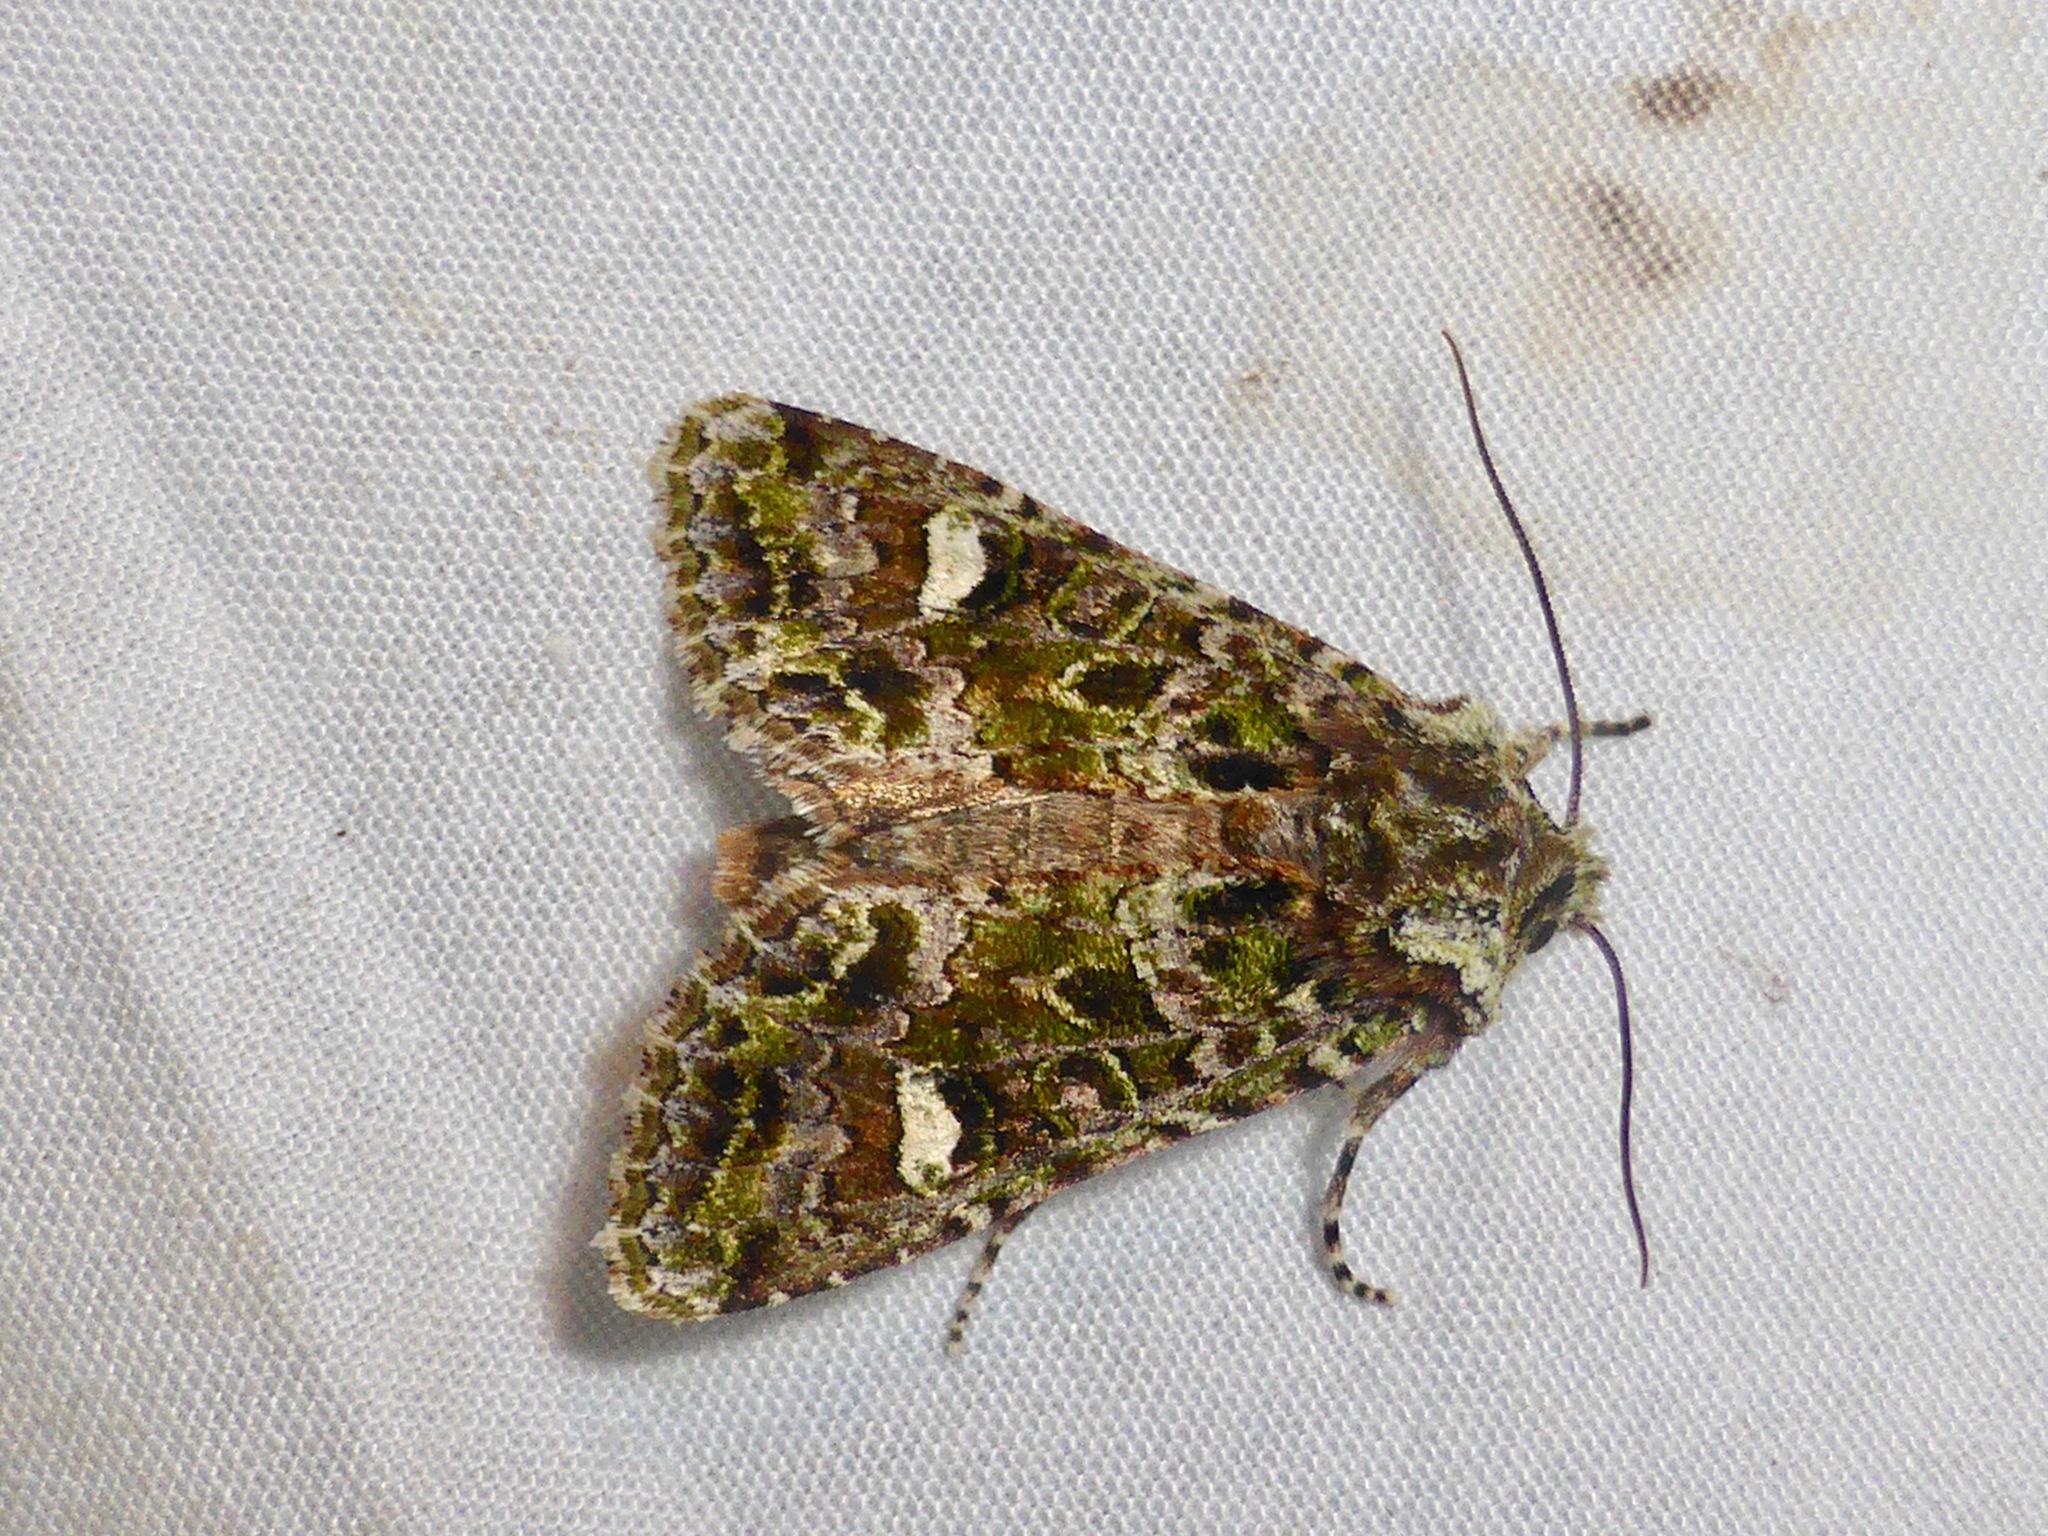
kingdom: Animalia
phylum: Arthropoda
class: Insecta
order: Lepidoptera
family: Noctuidae
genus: Ichneutica
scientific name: Ichneutica
